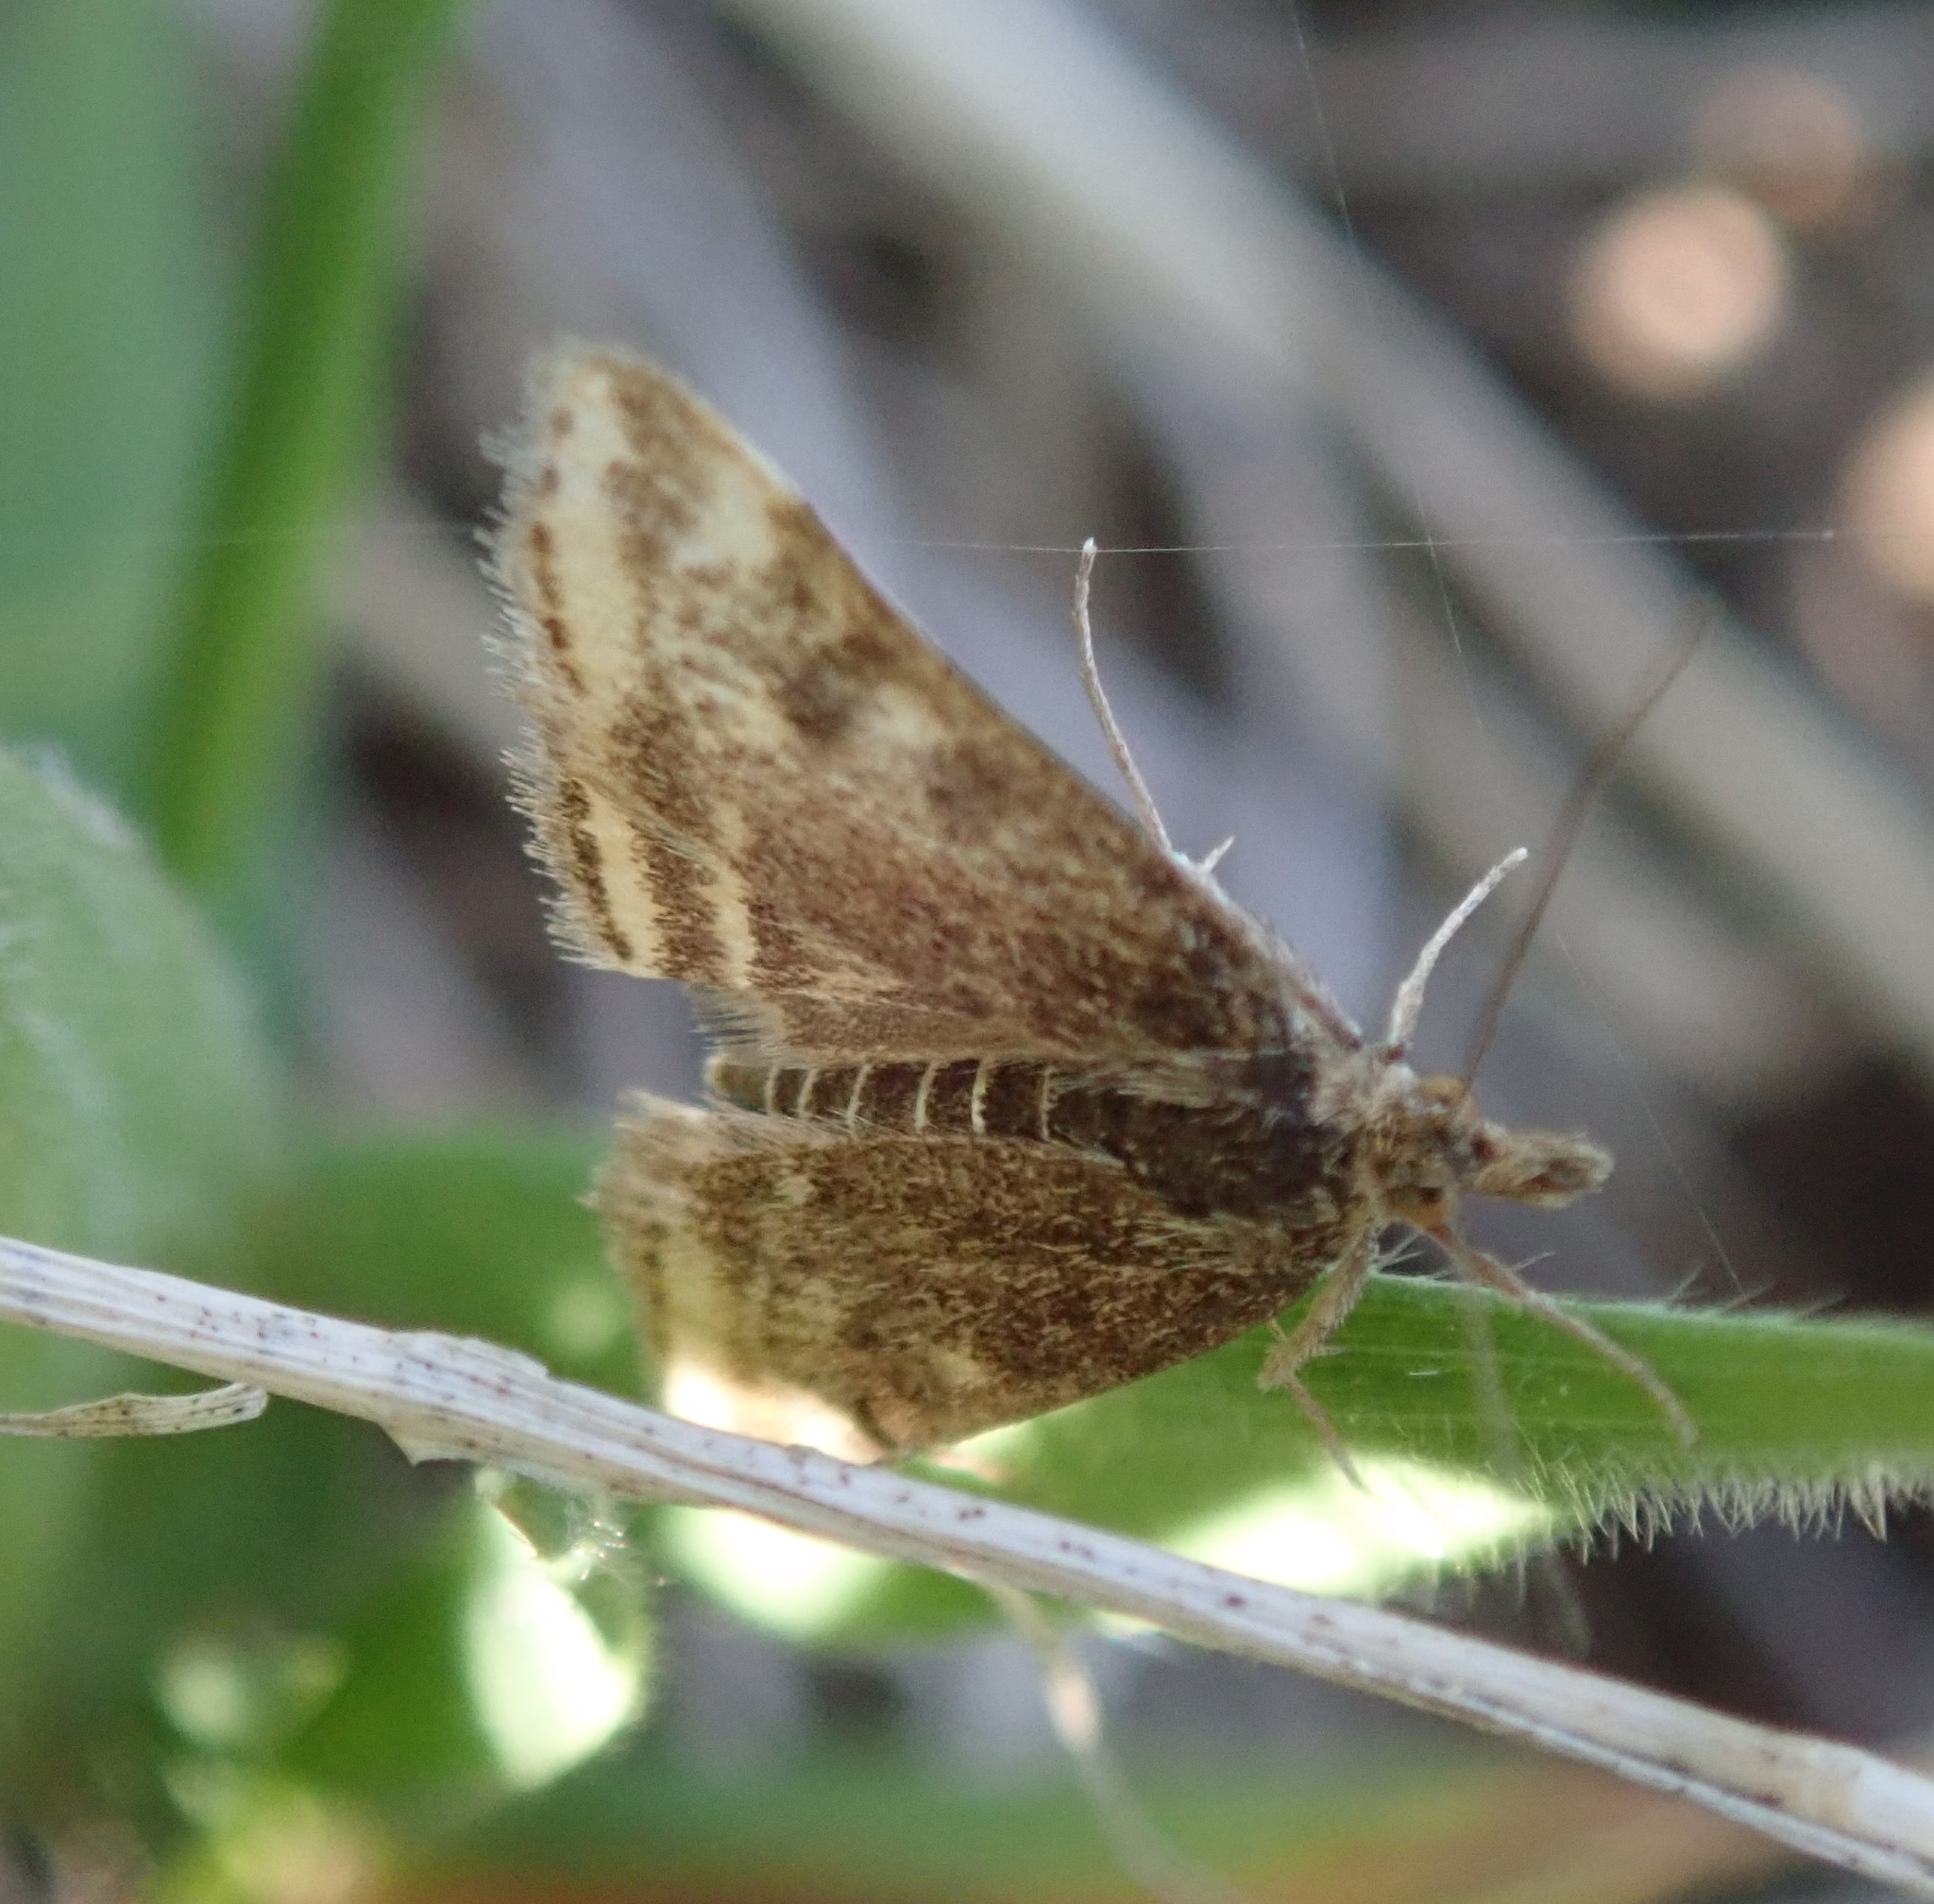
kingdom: Animalia
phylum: Arthropoda
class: Insecta
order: Lepidoptera
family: Crambidae
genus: Pyrausta
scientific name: Pyrausta despicata
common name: Straw-barred pearl
